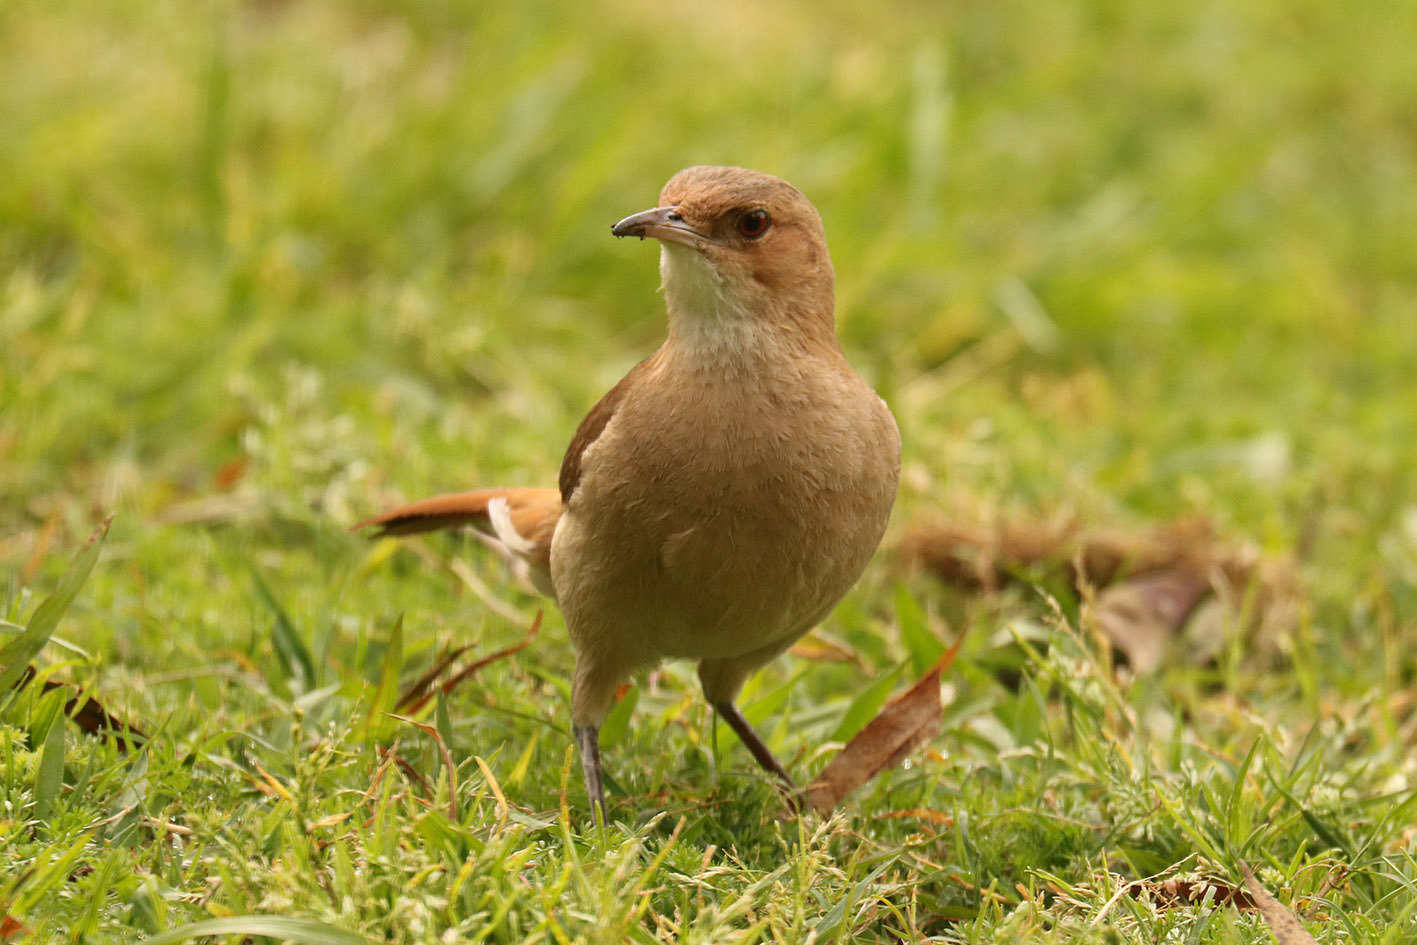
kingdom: Animalia
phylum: Chordata
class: Aves
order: Passeriformes
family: Furnariidae
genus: Furnarius
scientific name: Furnarius rufus
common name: Rufous hornero
